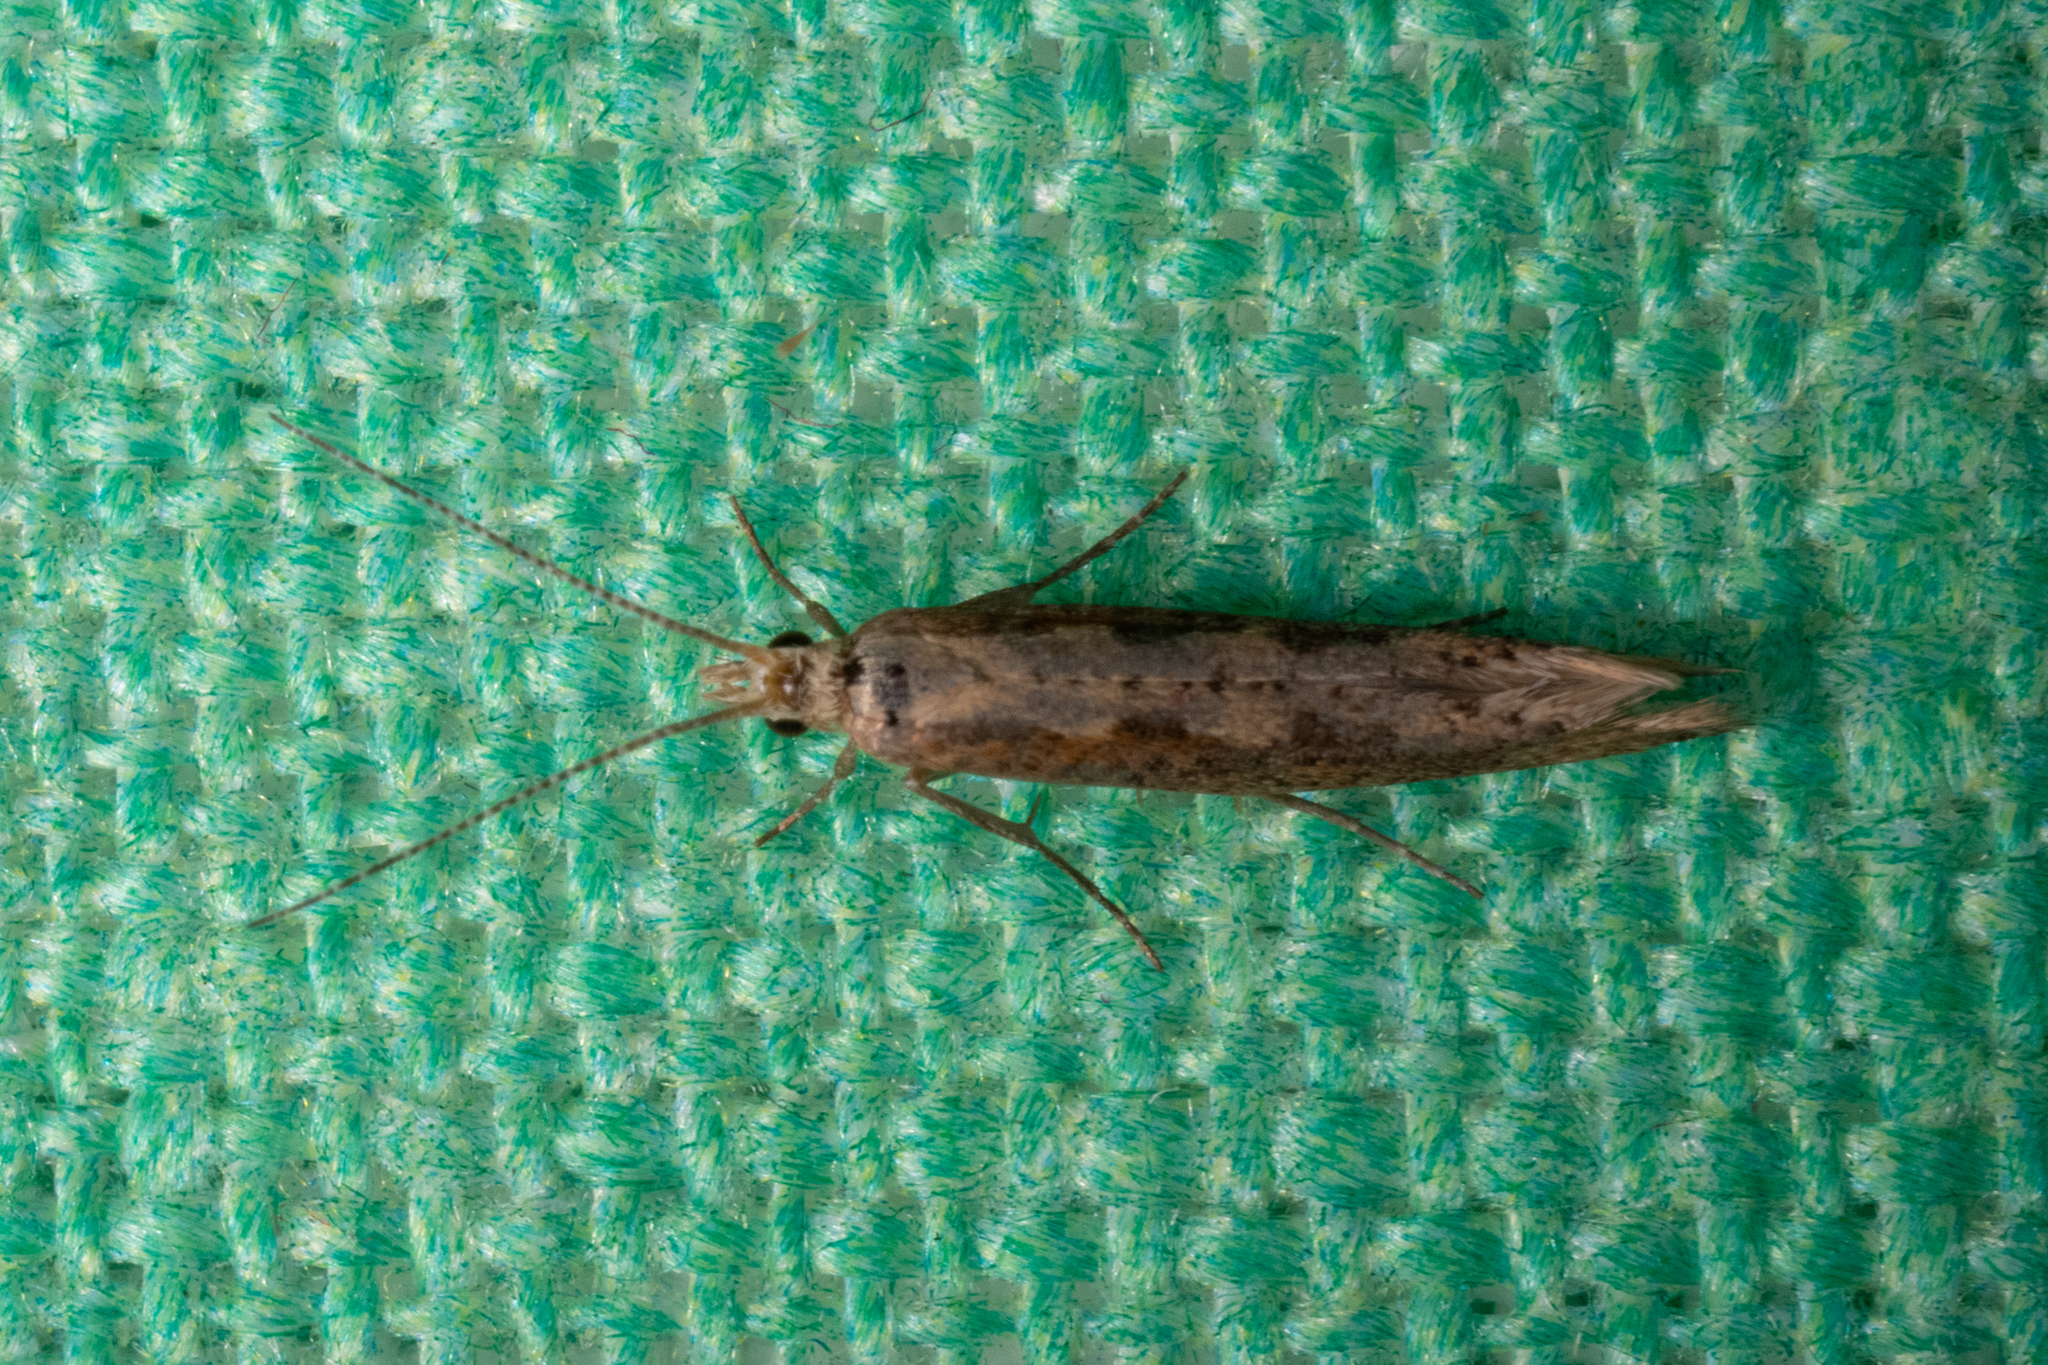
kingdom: Animalia
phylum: Arthropoda
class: Insecta
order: Lepidoptera
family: Plutellidae
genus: Plutella
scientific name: Plutella xylostella
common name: Diamond-back moth
